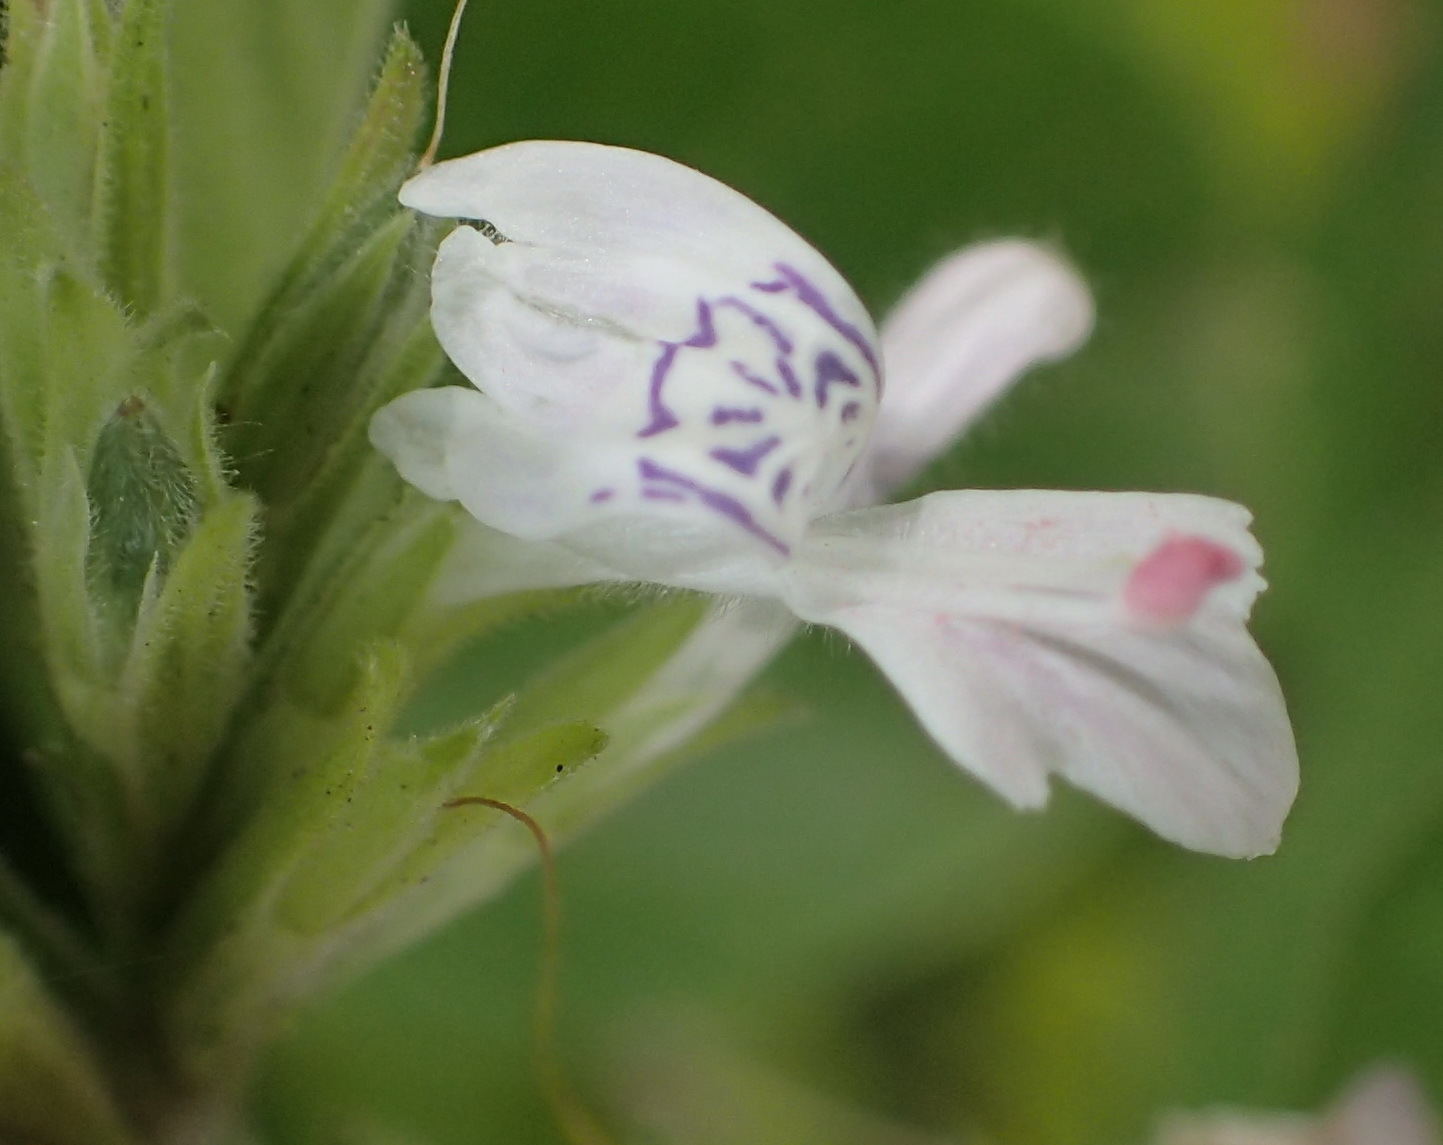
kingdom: Plantae
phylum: Tracheophyta
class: Magnoliopsida
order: Lamiales
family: Acanthaceae
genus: Hypoestes
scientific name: Hypoestes forskaolii
